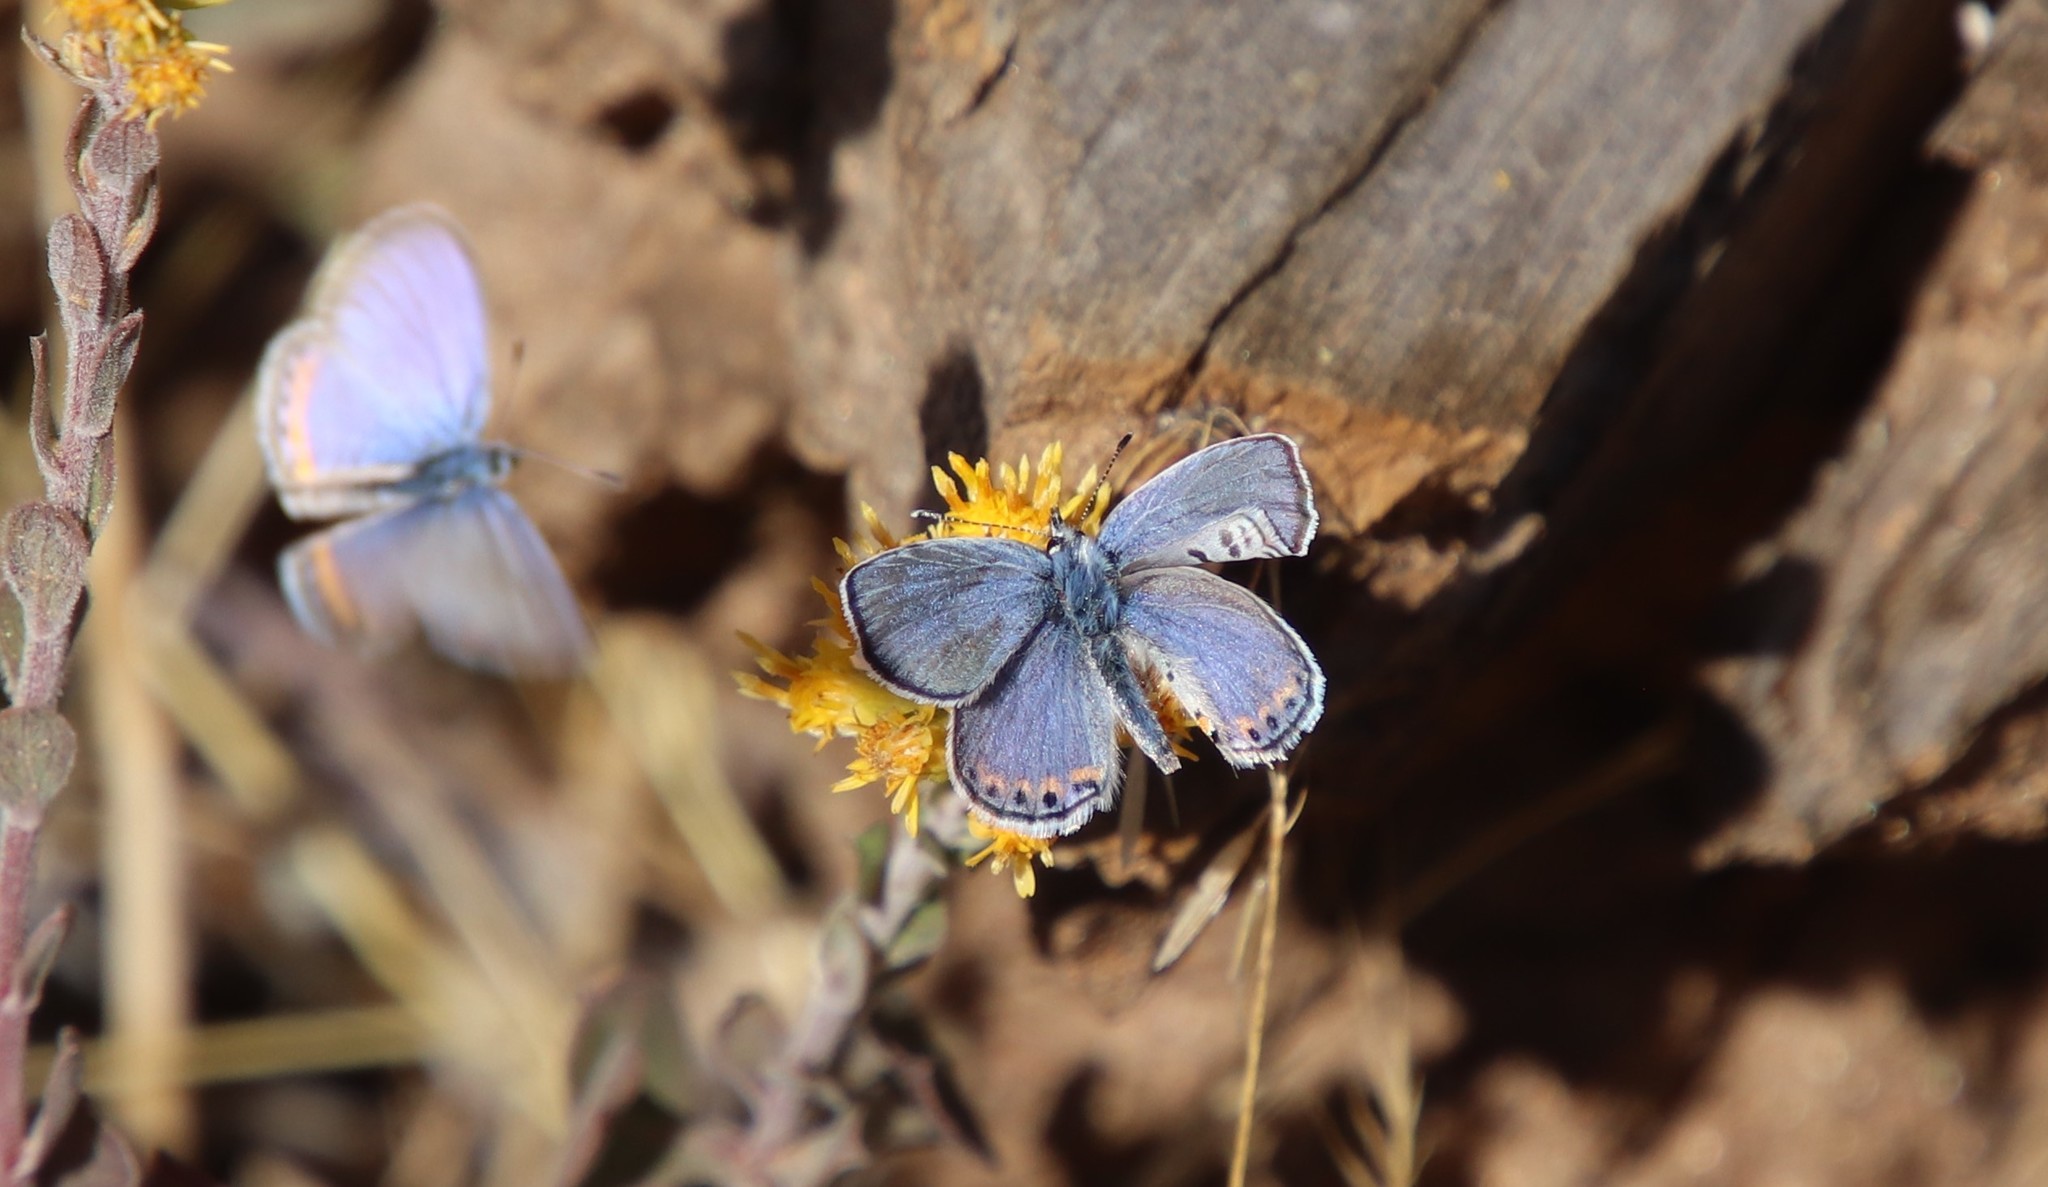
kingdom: Animalia
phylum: Arthropoda
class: Insecta
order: Lepidoptera
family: Lycaenidae
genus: Icaricia
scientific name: Icaricia acmon
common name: Acmon blue
